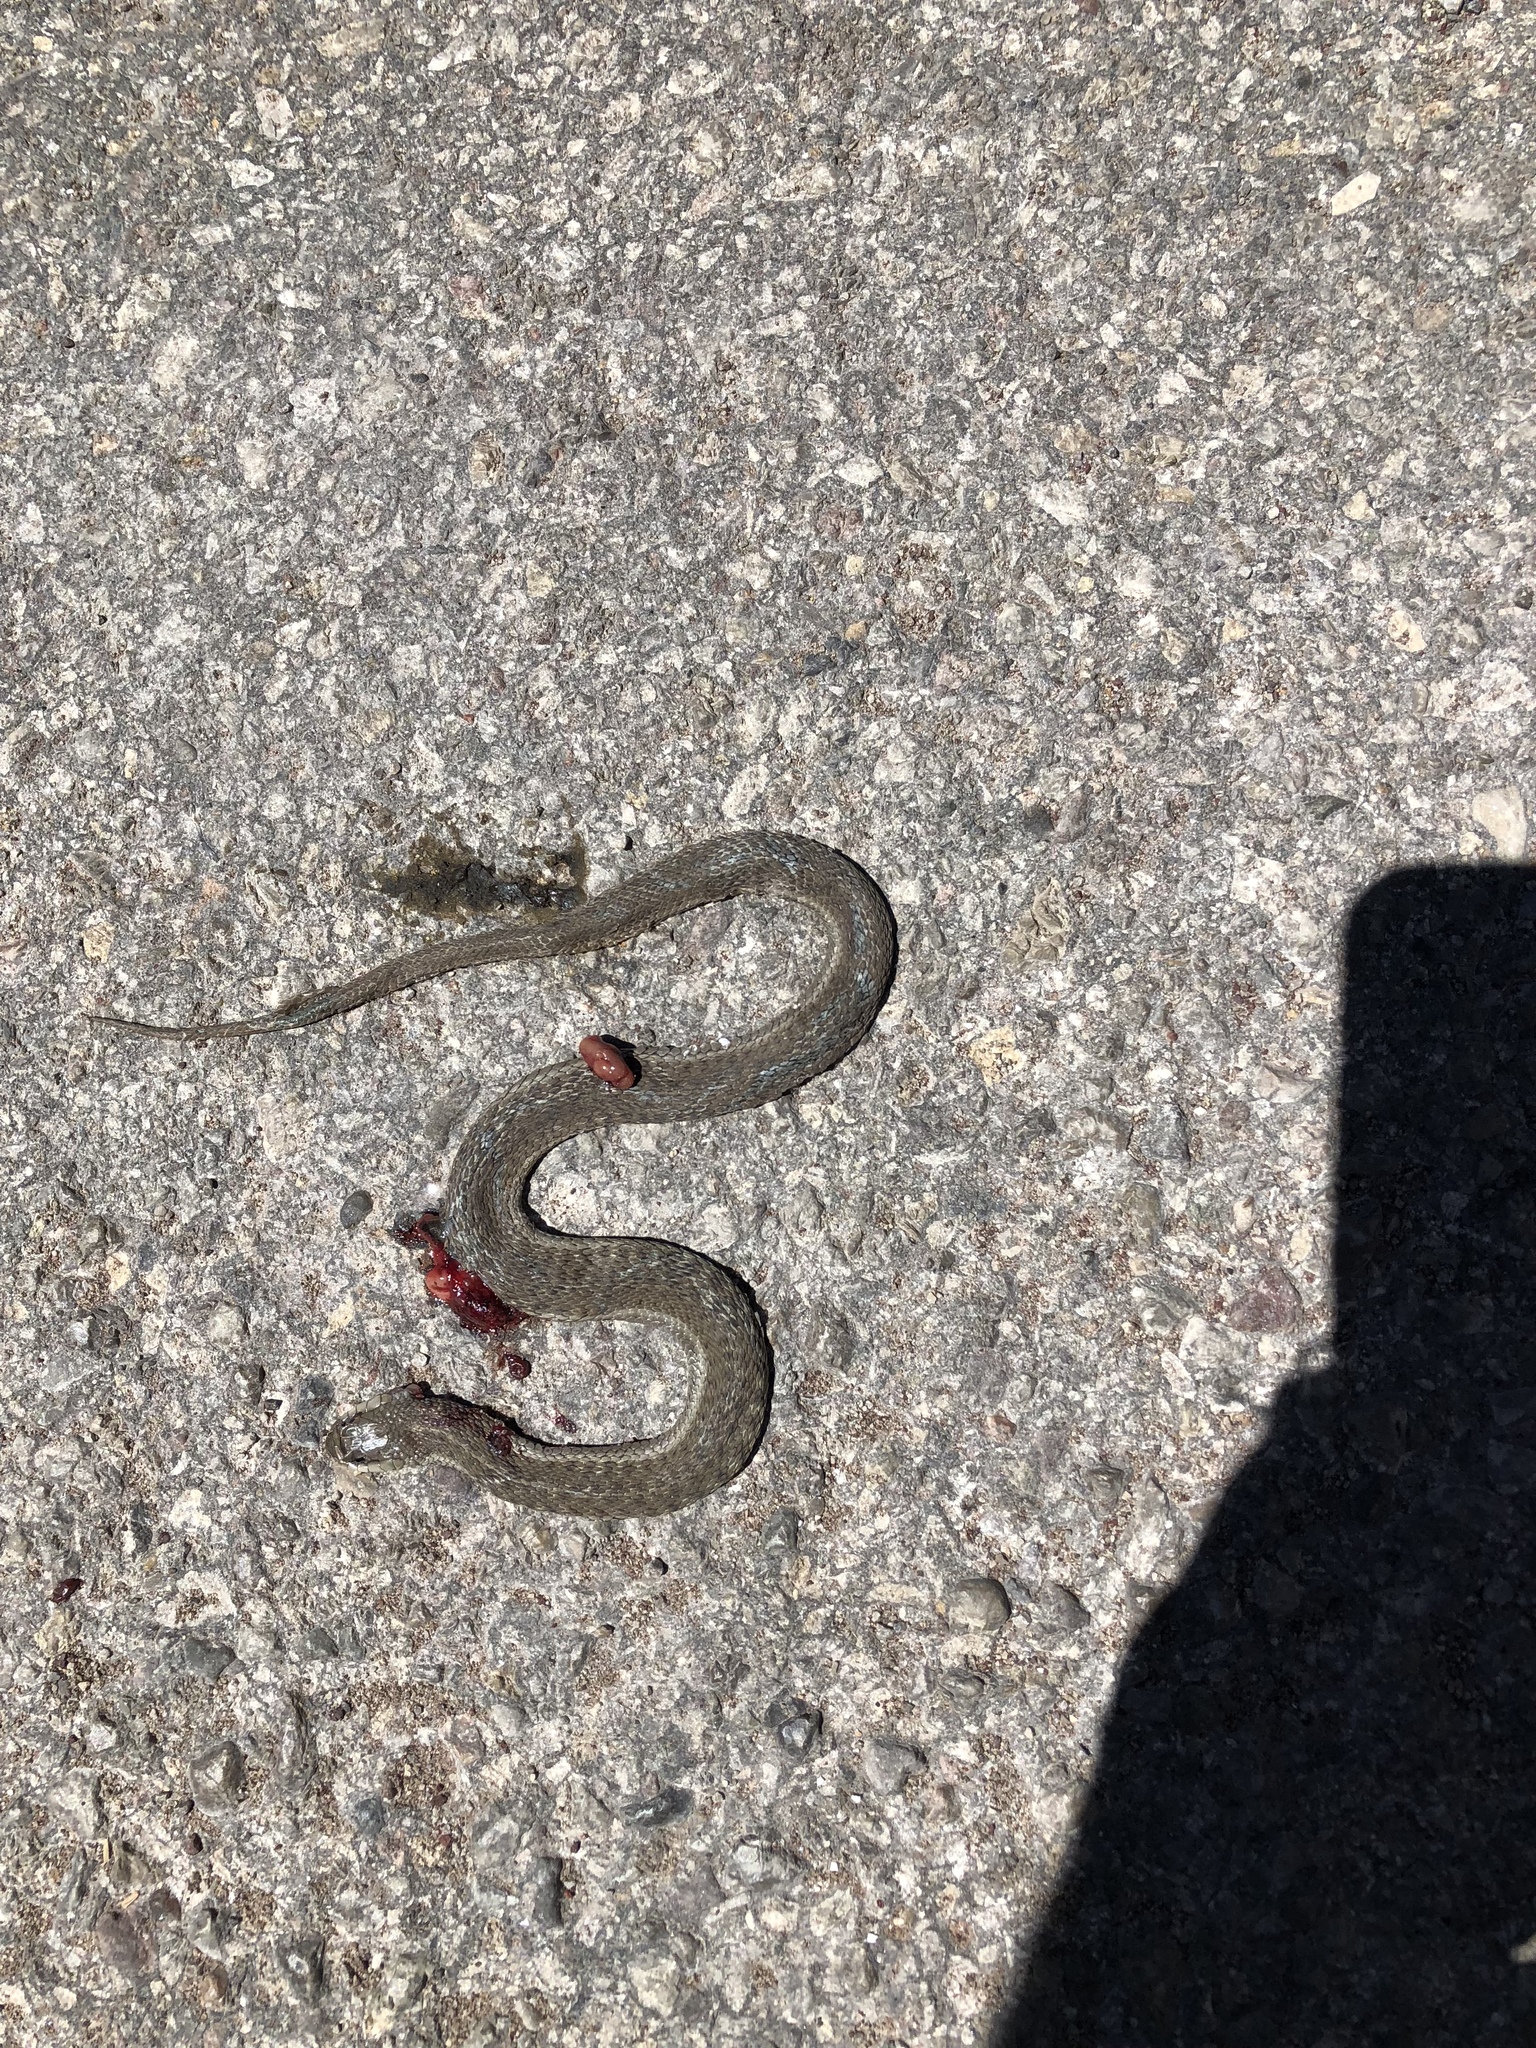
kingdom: Animalia
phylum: Chordata
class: Squamata
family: Colubridae
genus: Thamnophis
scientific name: Thamnophis elegans
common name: Western terrestrial garter snake
